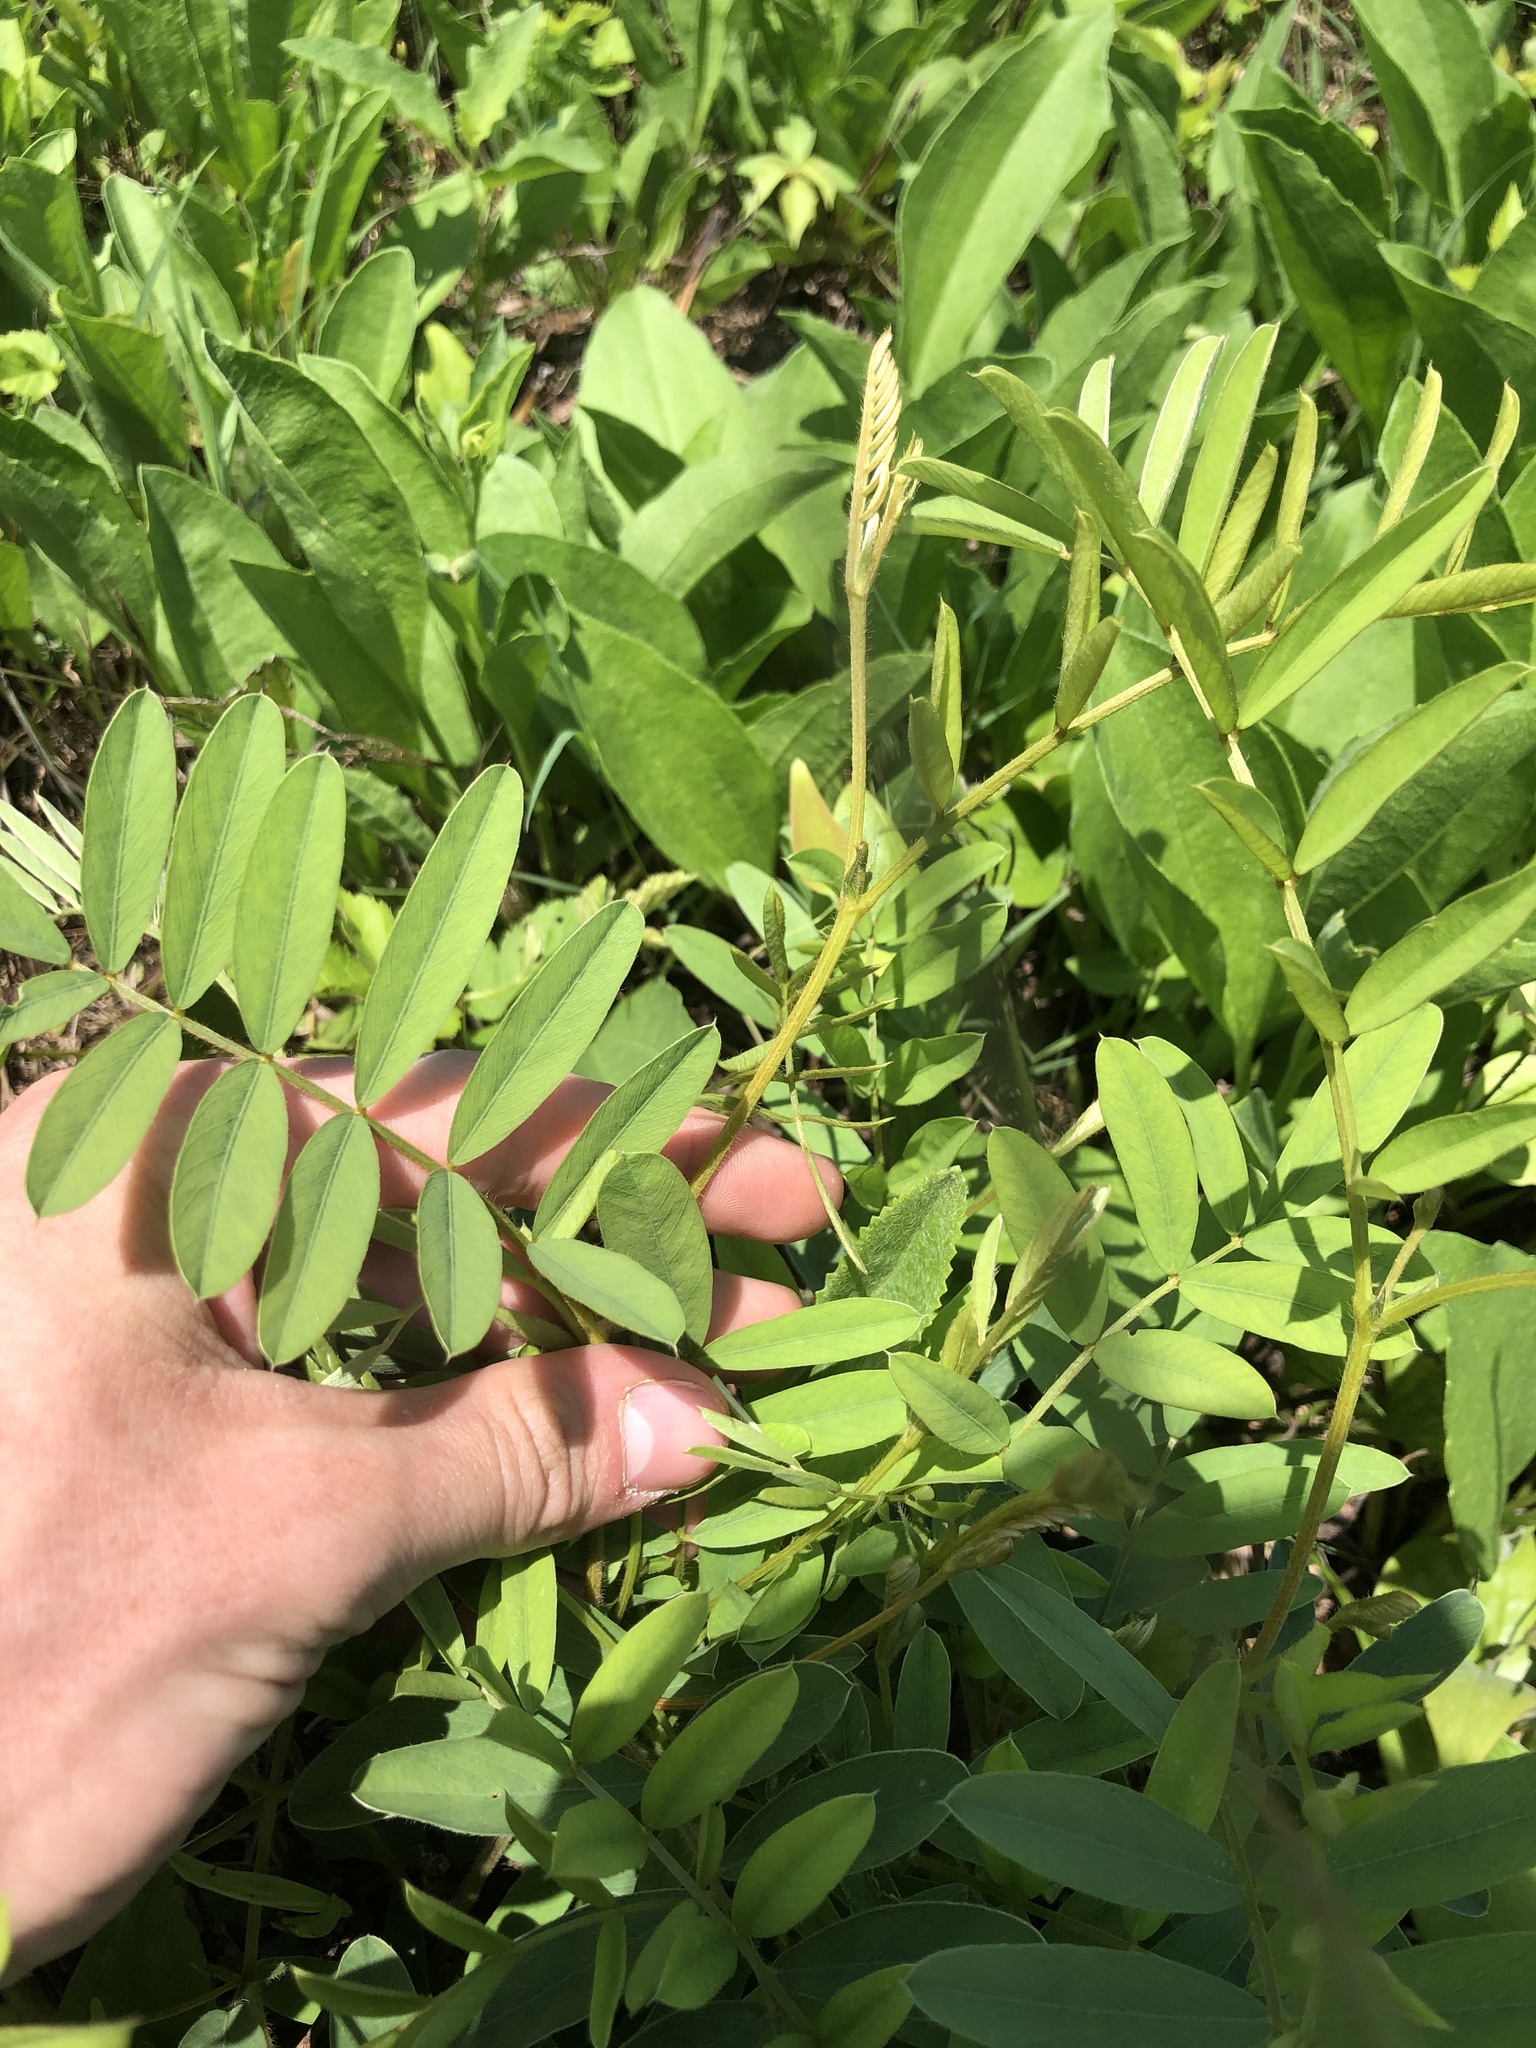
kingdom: Plantae
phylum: Tracheophyta
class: Magnoliopsida
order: Fabales
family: Fabaceae
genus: Tephrosia
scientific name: Tephrosia onobrychoides
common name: Multi-bloom hoary-pea
